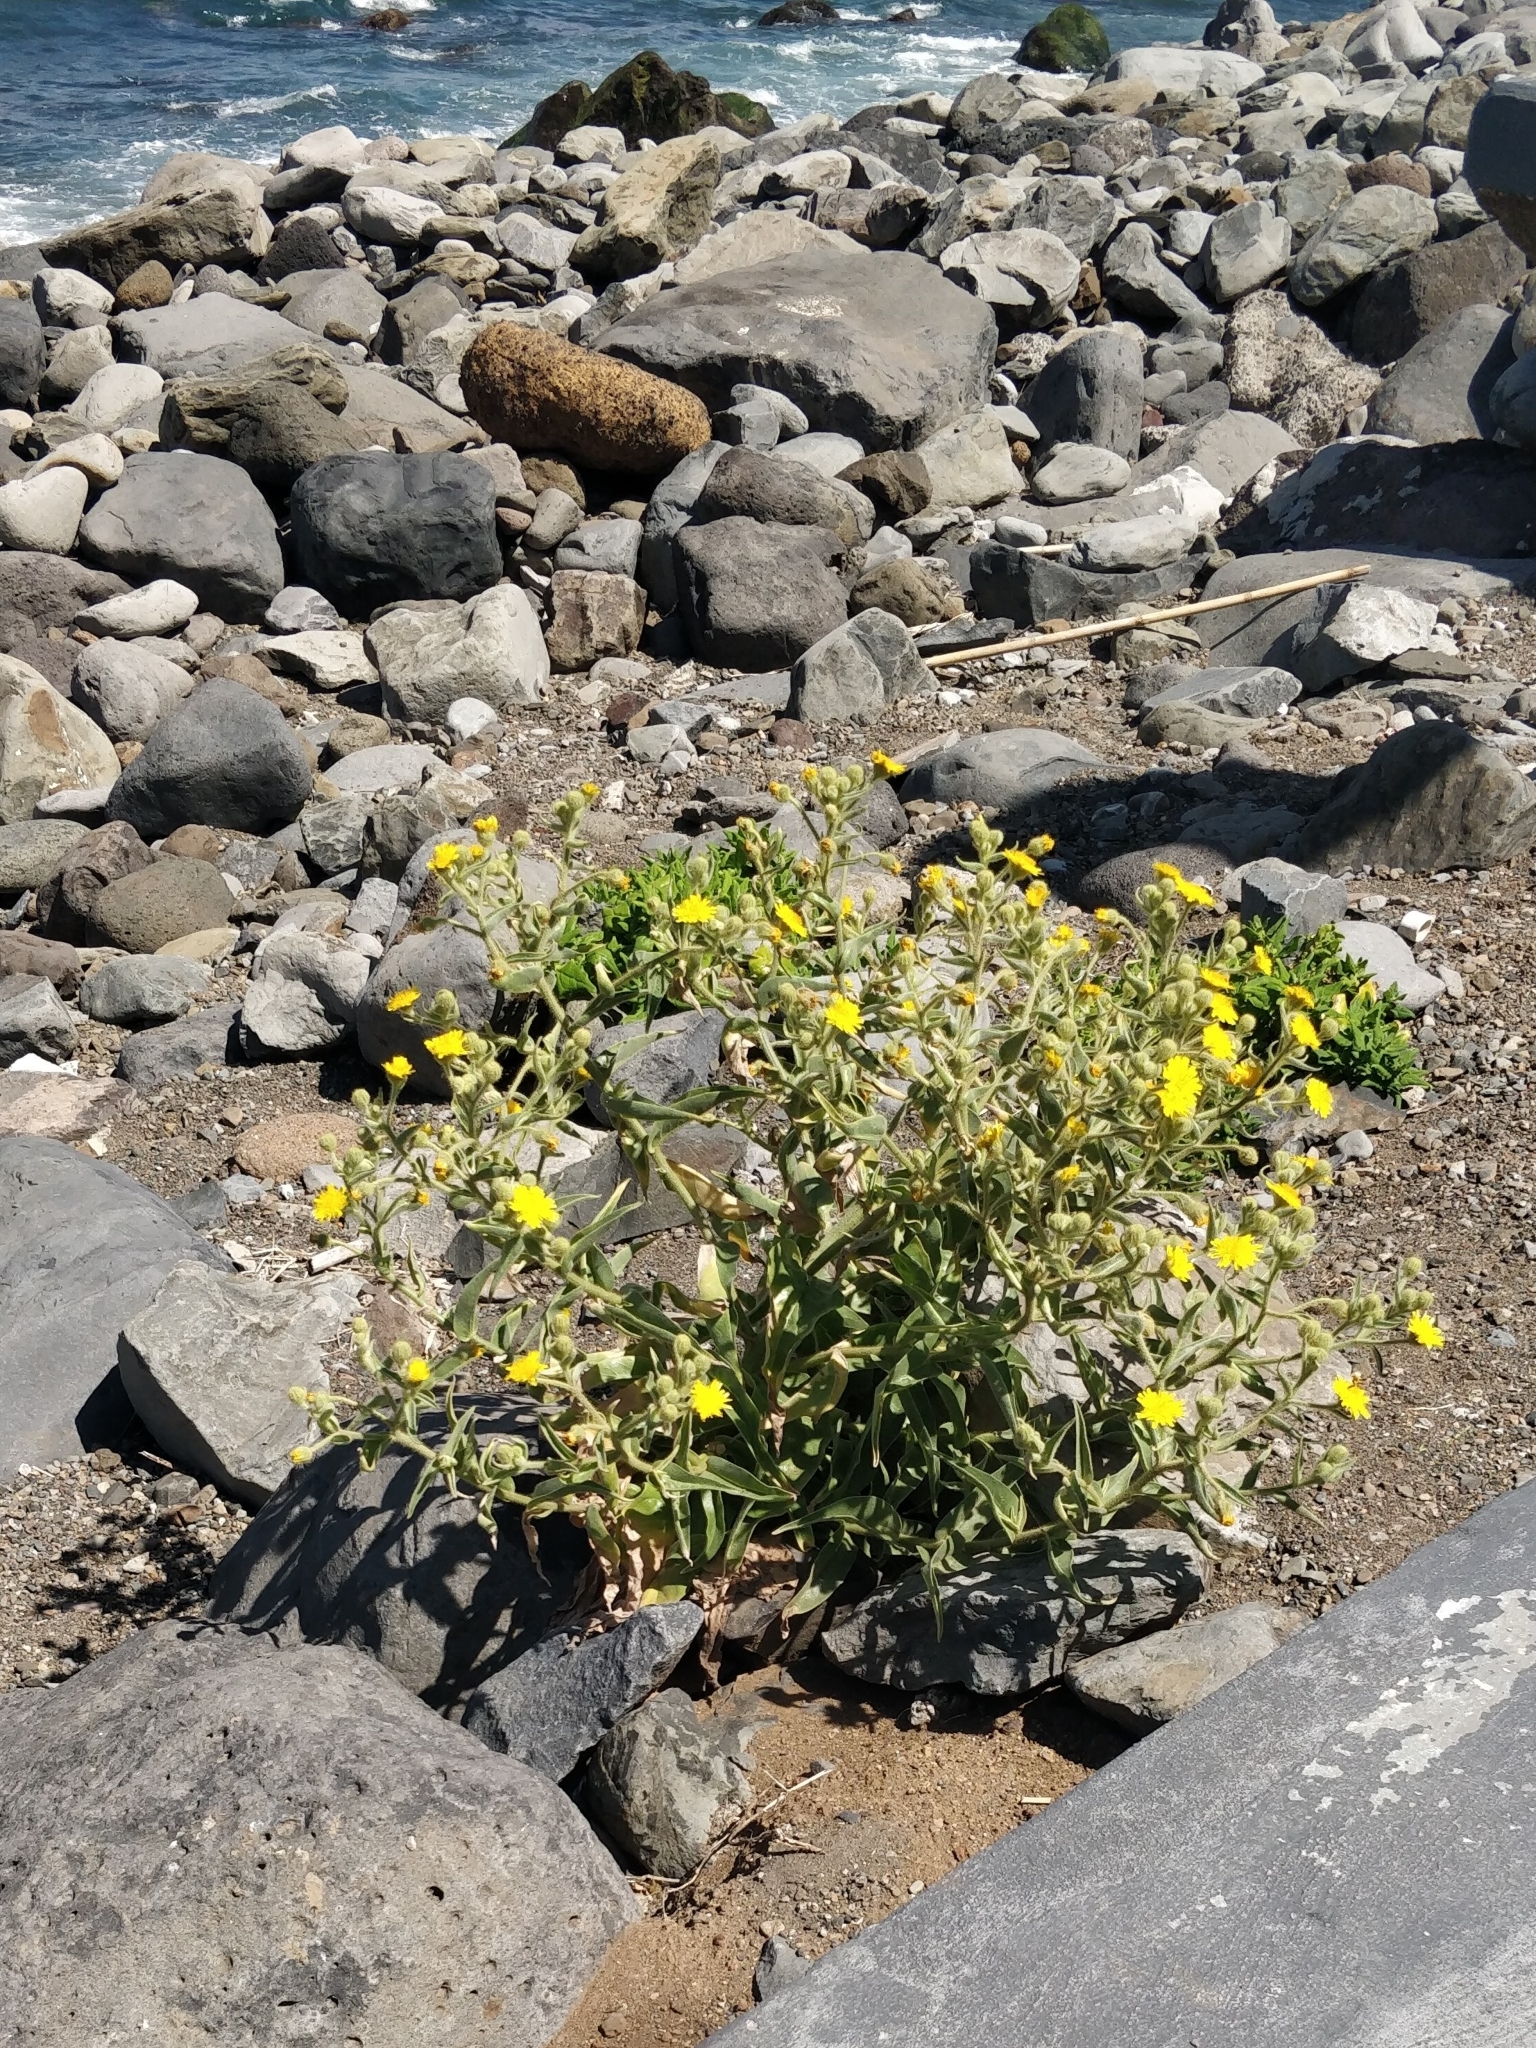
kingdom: Plantae
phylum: Tracheophyta
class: Magnoliopsida
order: Asterales
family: Asteraceae
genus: Andryala
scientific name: Andryala glandulosa
